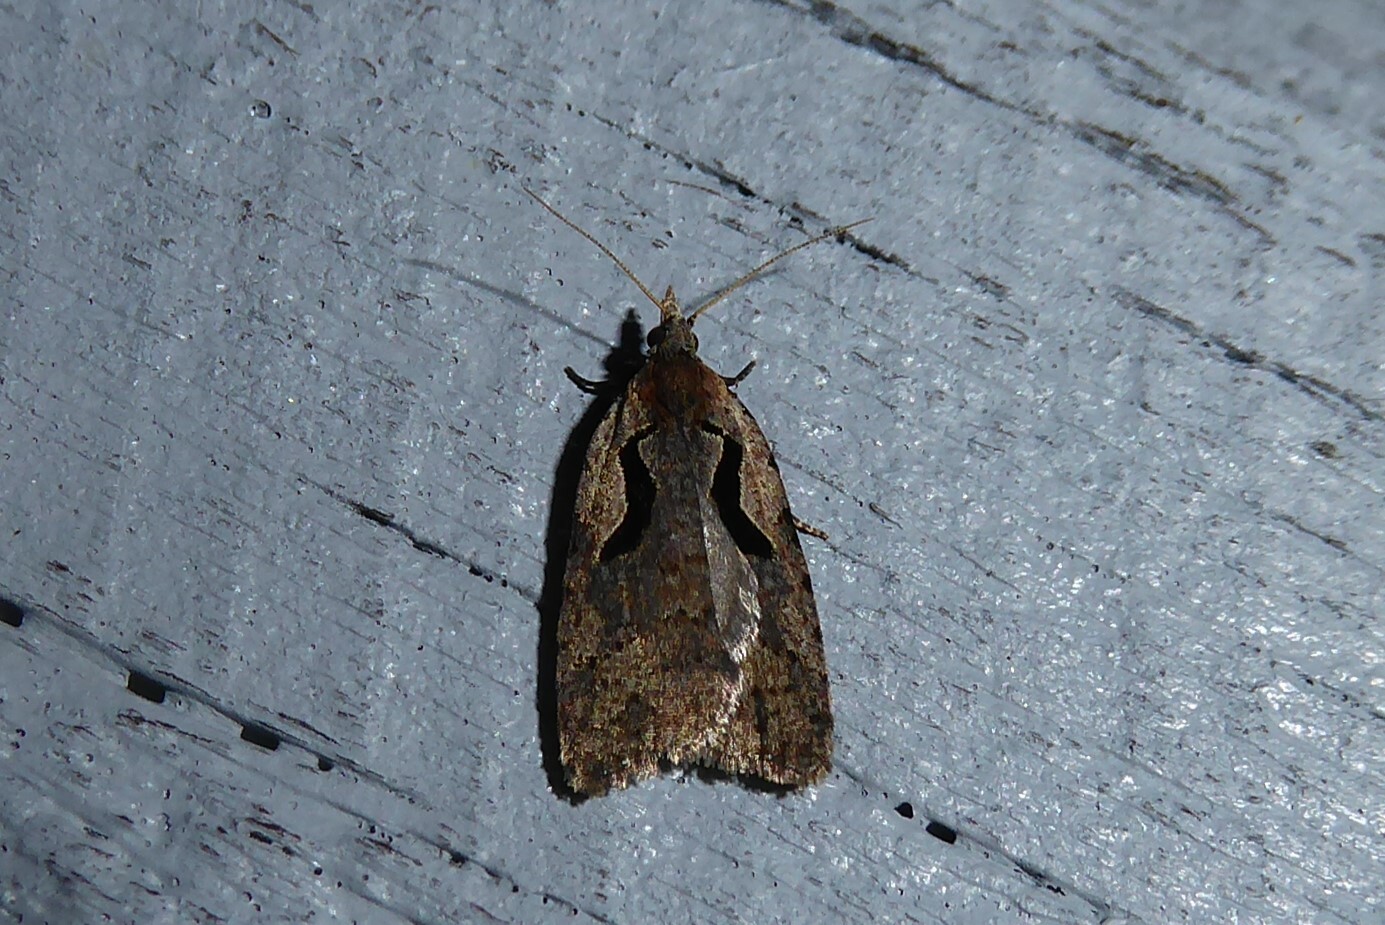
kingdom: Animalia
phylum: Arthropoda
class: Insecta
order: Lepidoptera
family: Tortricidae
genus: Cnephasia
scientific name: Cnephasia jactatana
